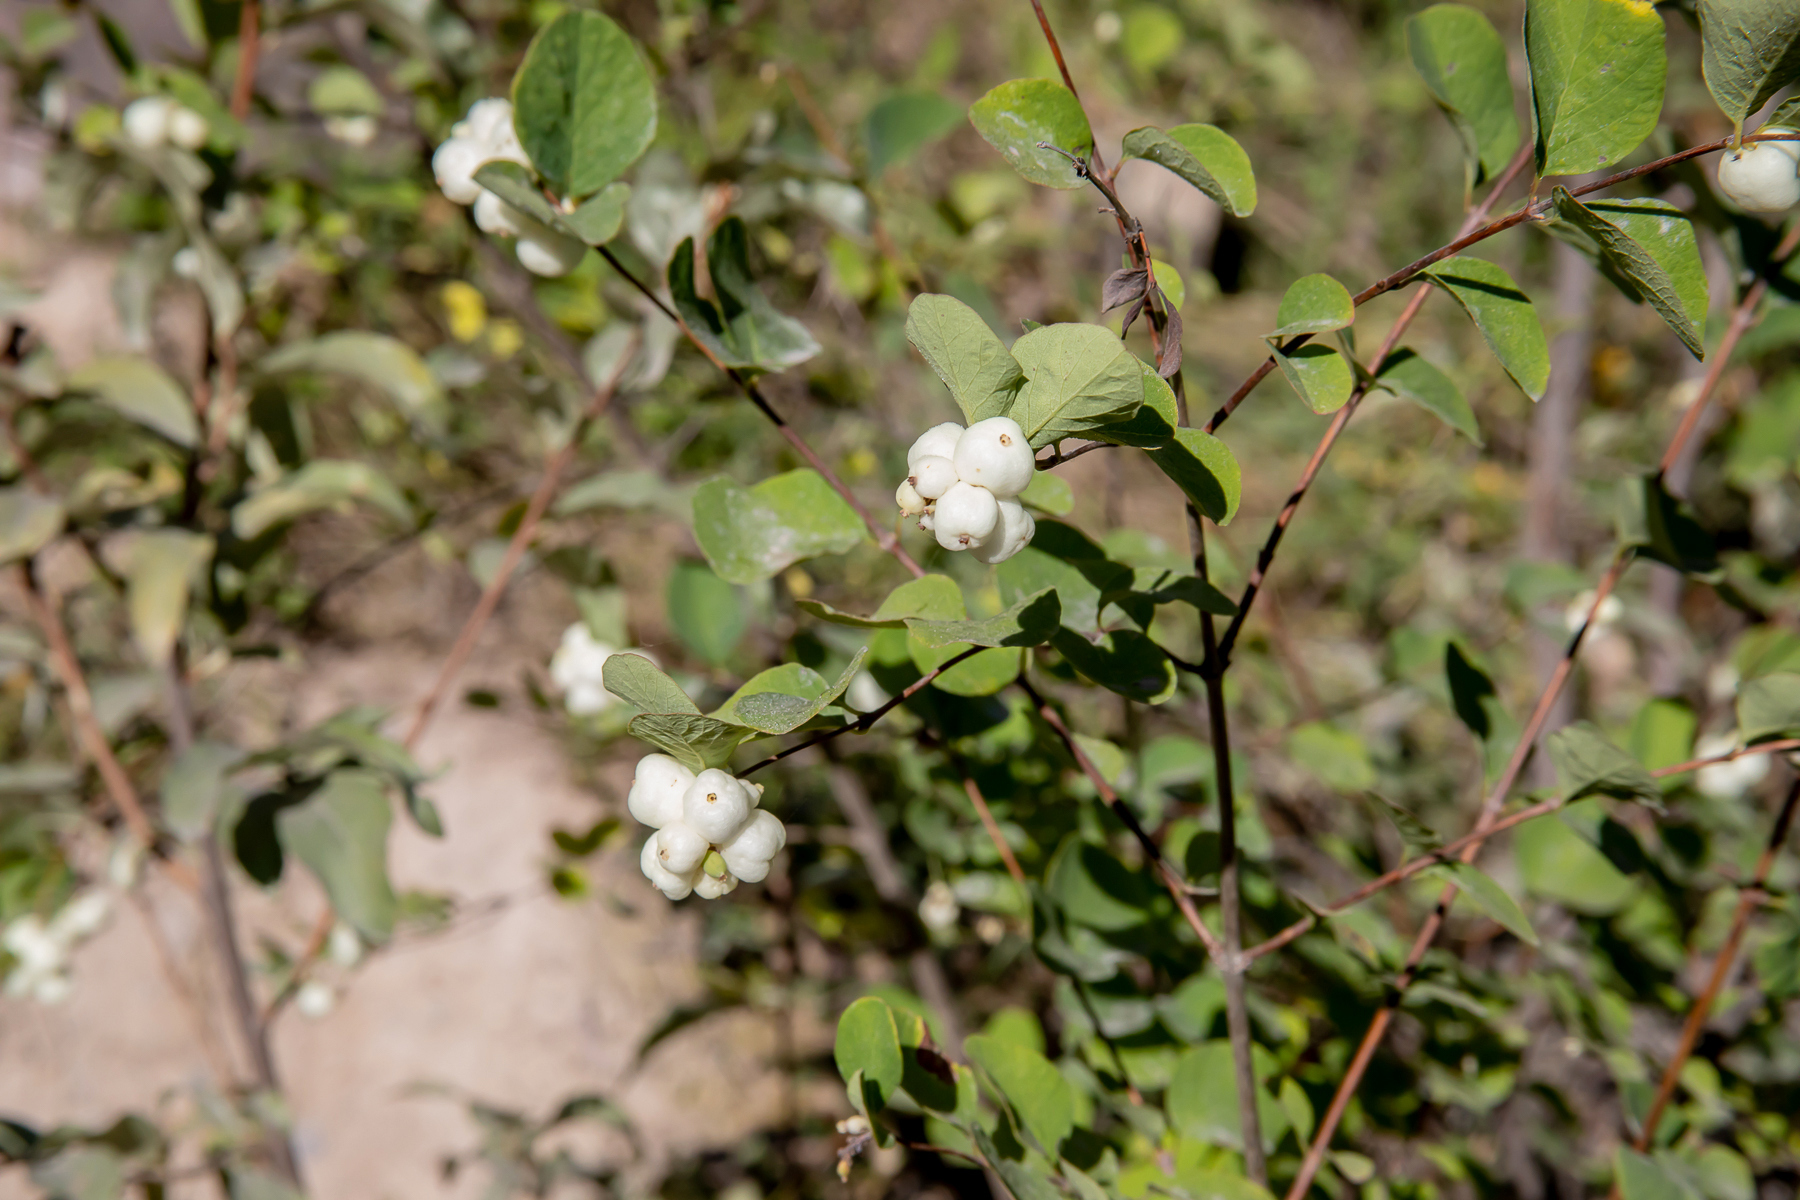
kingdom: Plantae
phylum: Tracheophyta
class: Magnoliopsida
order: Dipsacales
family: Caprifoliaceae
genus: Symphoricarpos
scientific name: Symphoricarpos albus
